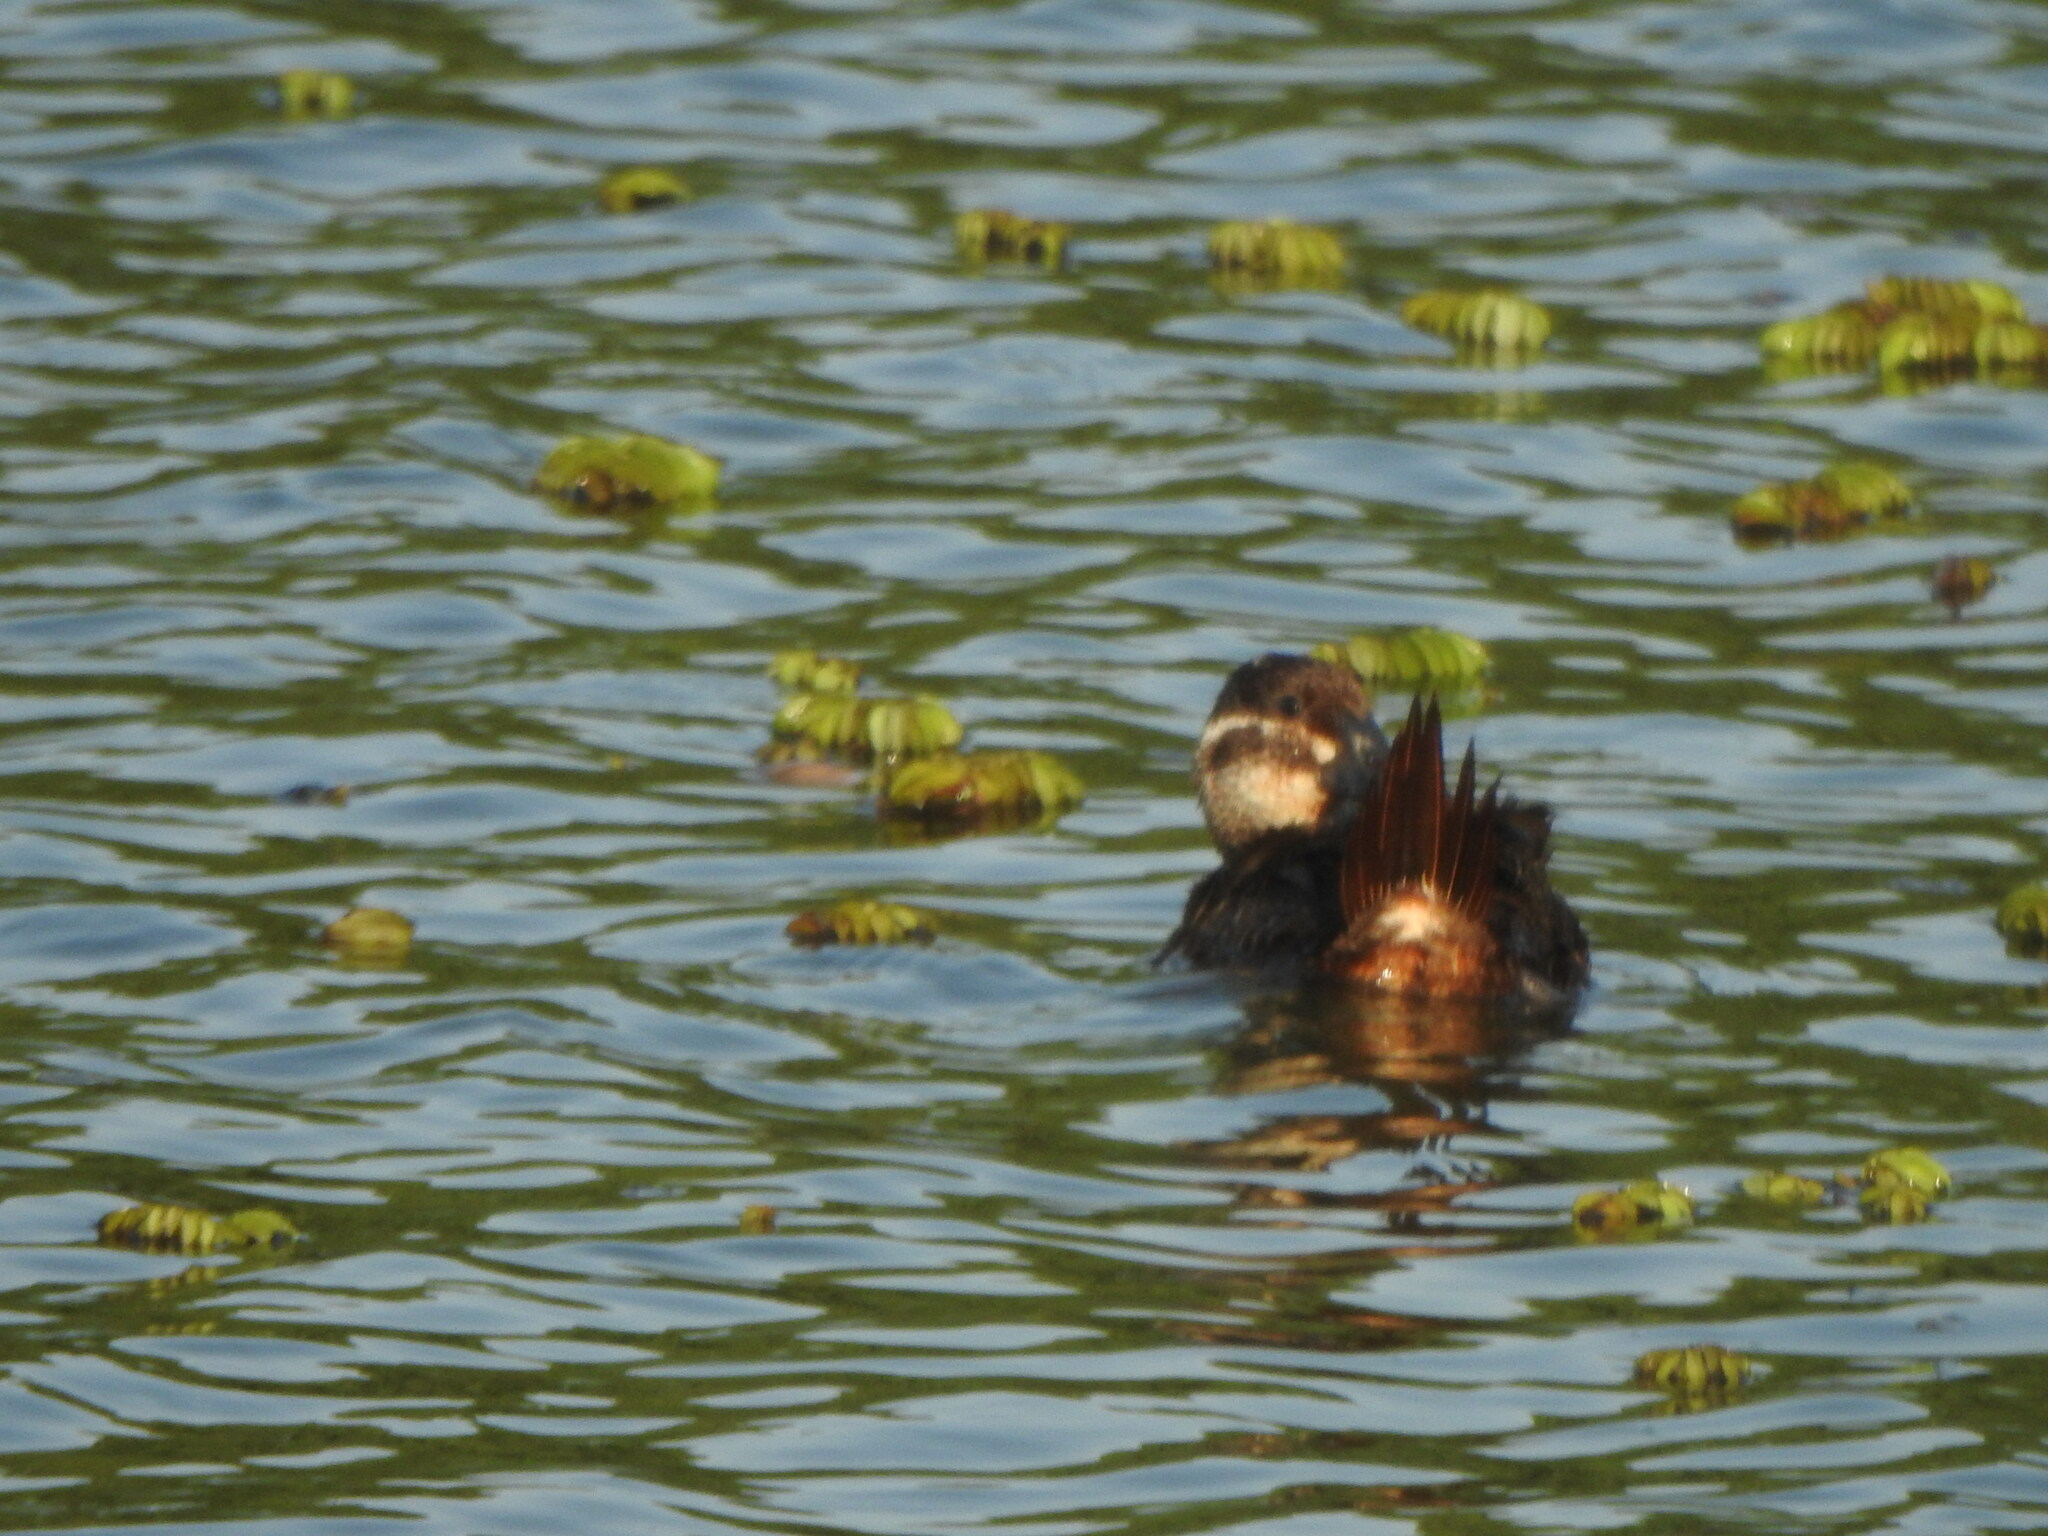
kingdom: Animalia
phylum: Chordata
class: Aves
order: Anseriformes
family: Anatidae
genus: Oxyura
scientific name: Oxyura vittata
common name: Lake duck
